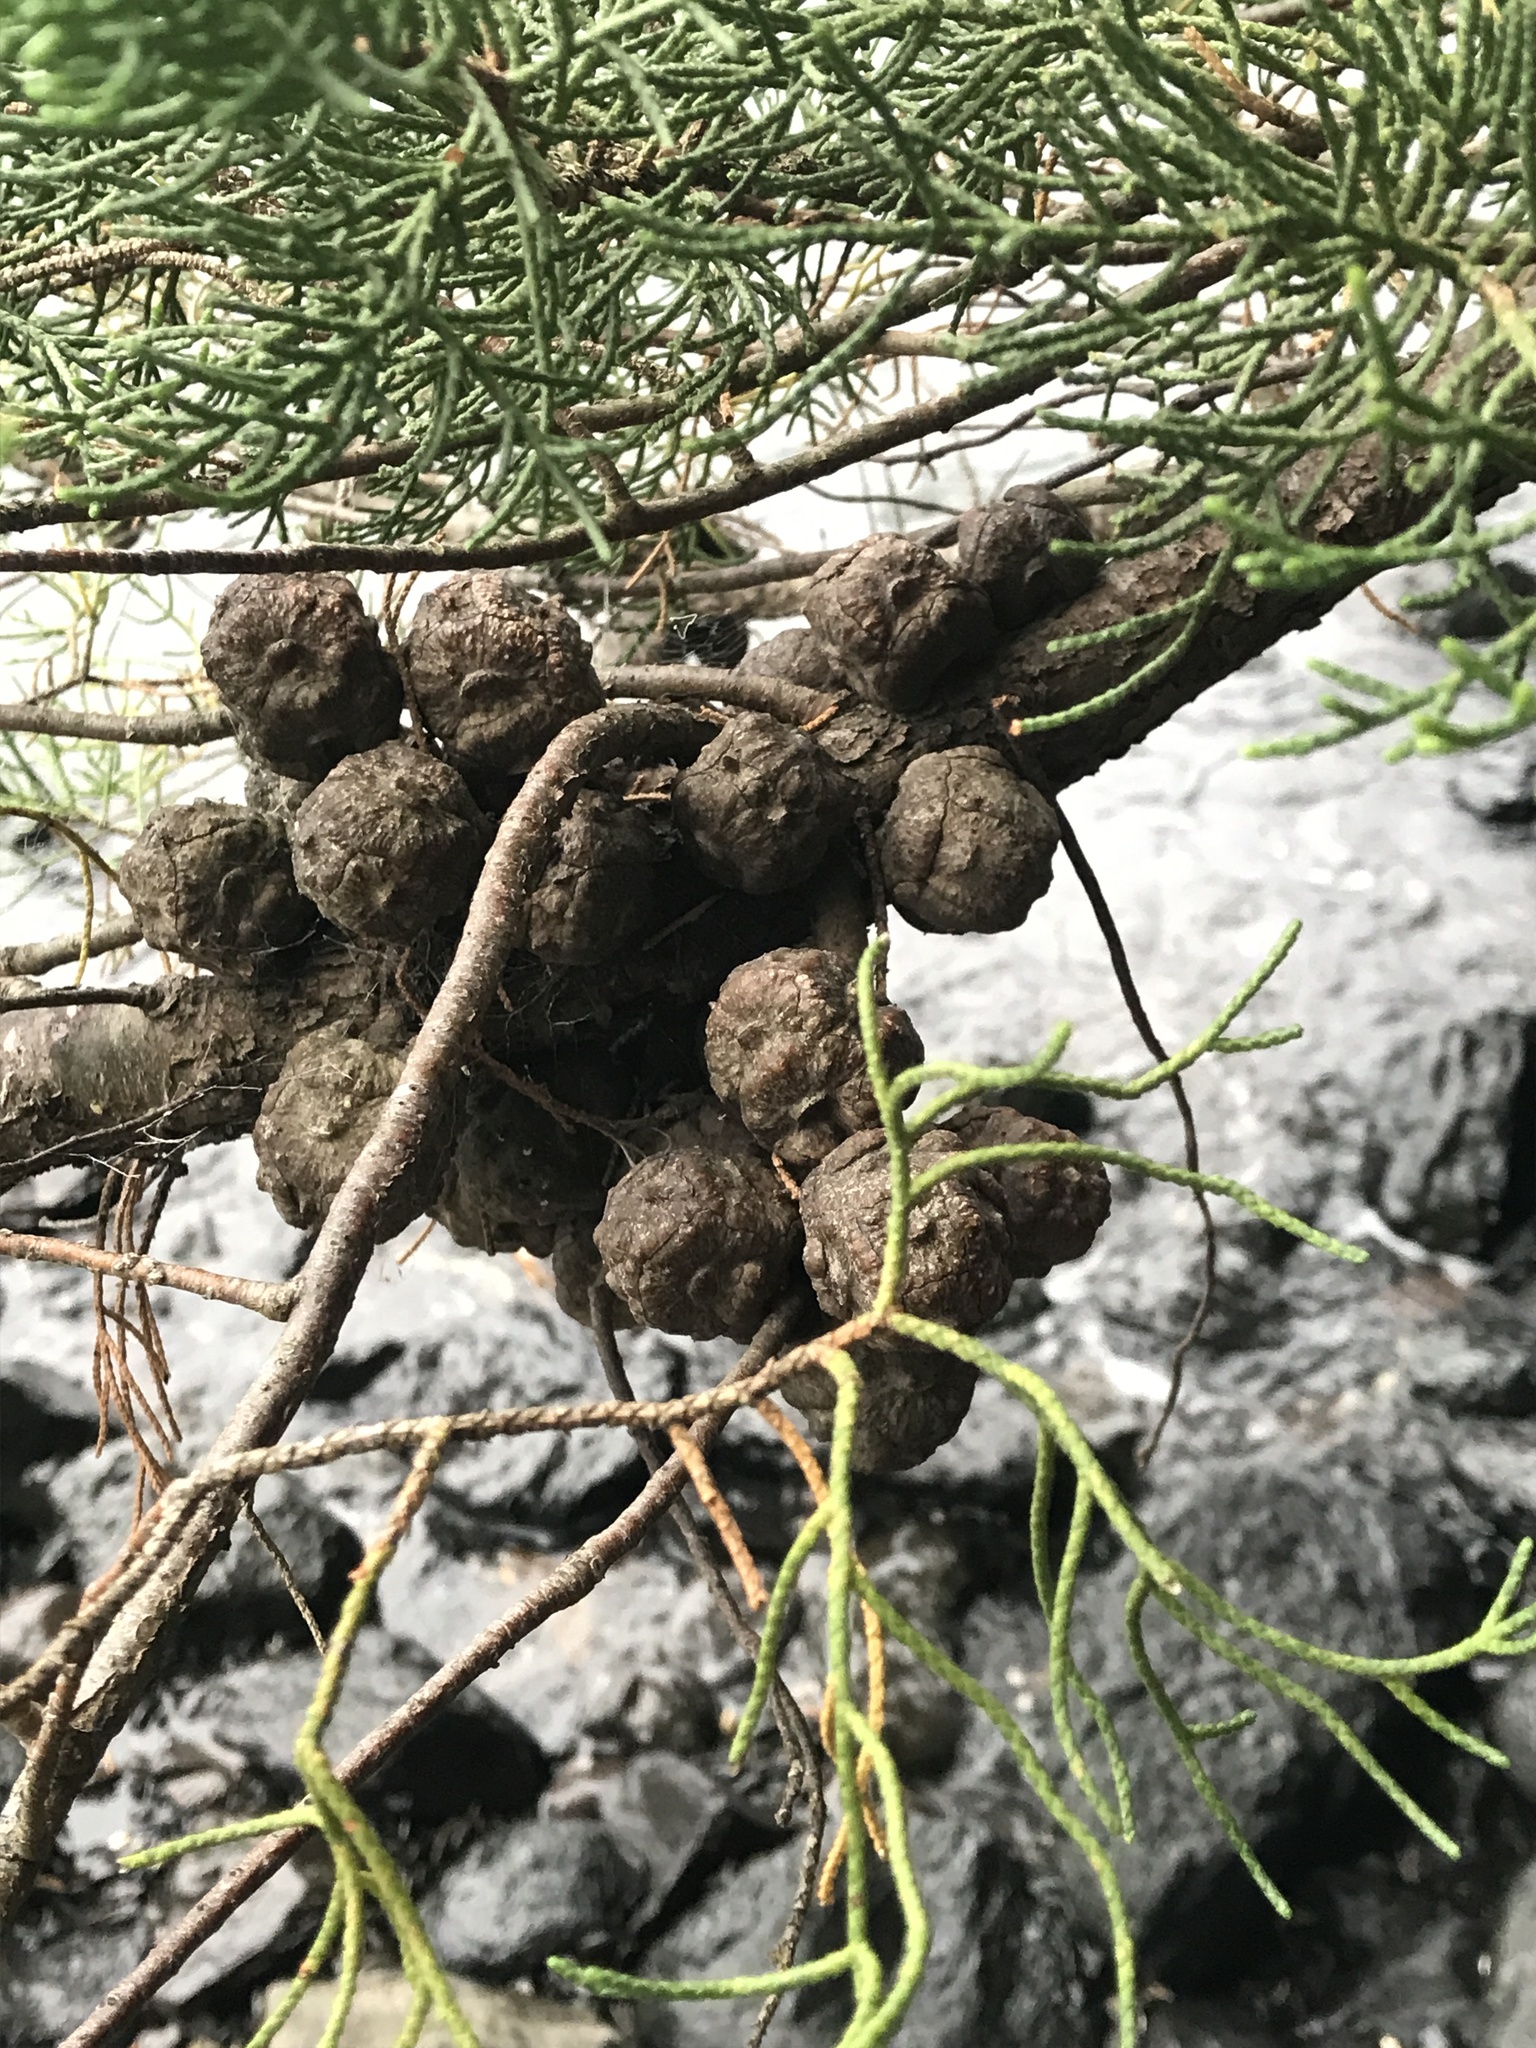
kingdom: Plantae
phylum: Tracheophyta
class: Pinopsida
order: Pinales
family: Cupressaceae
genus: Cupressus
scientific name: Cupressus macrocarpa
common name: Monterey cypress
